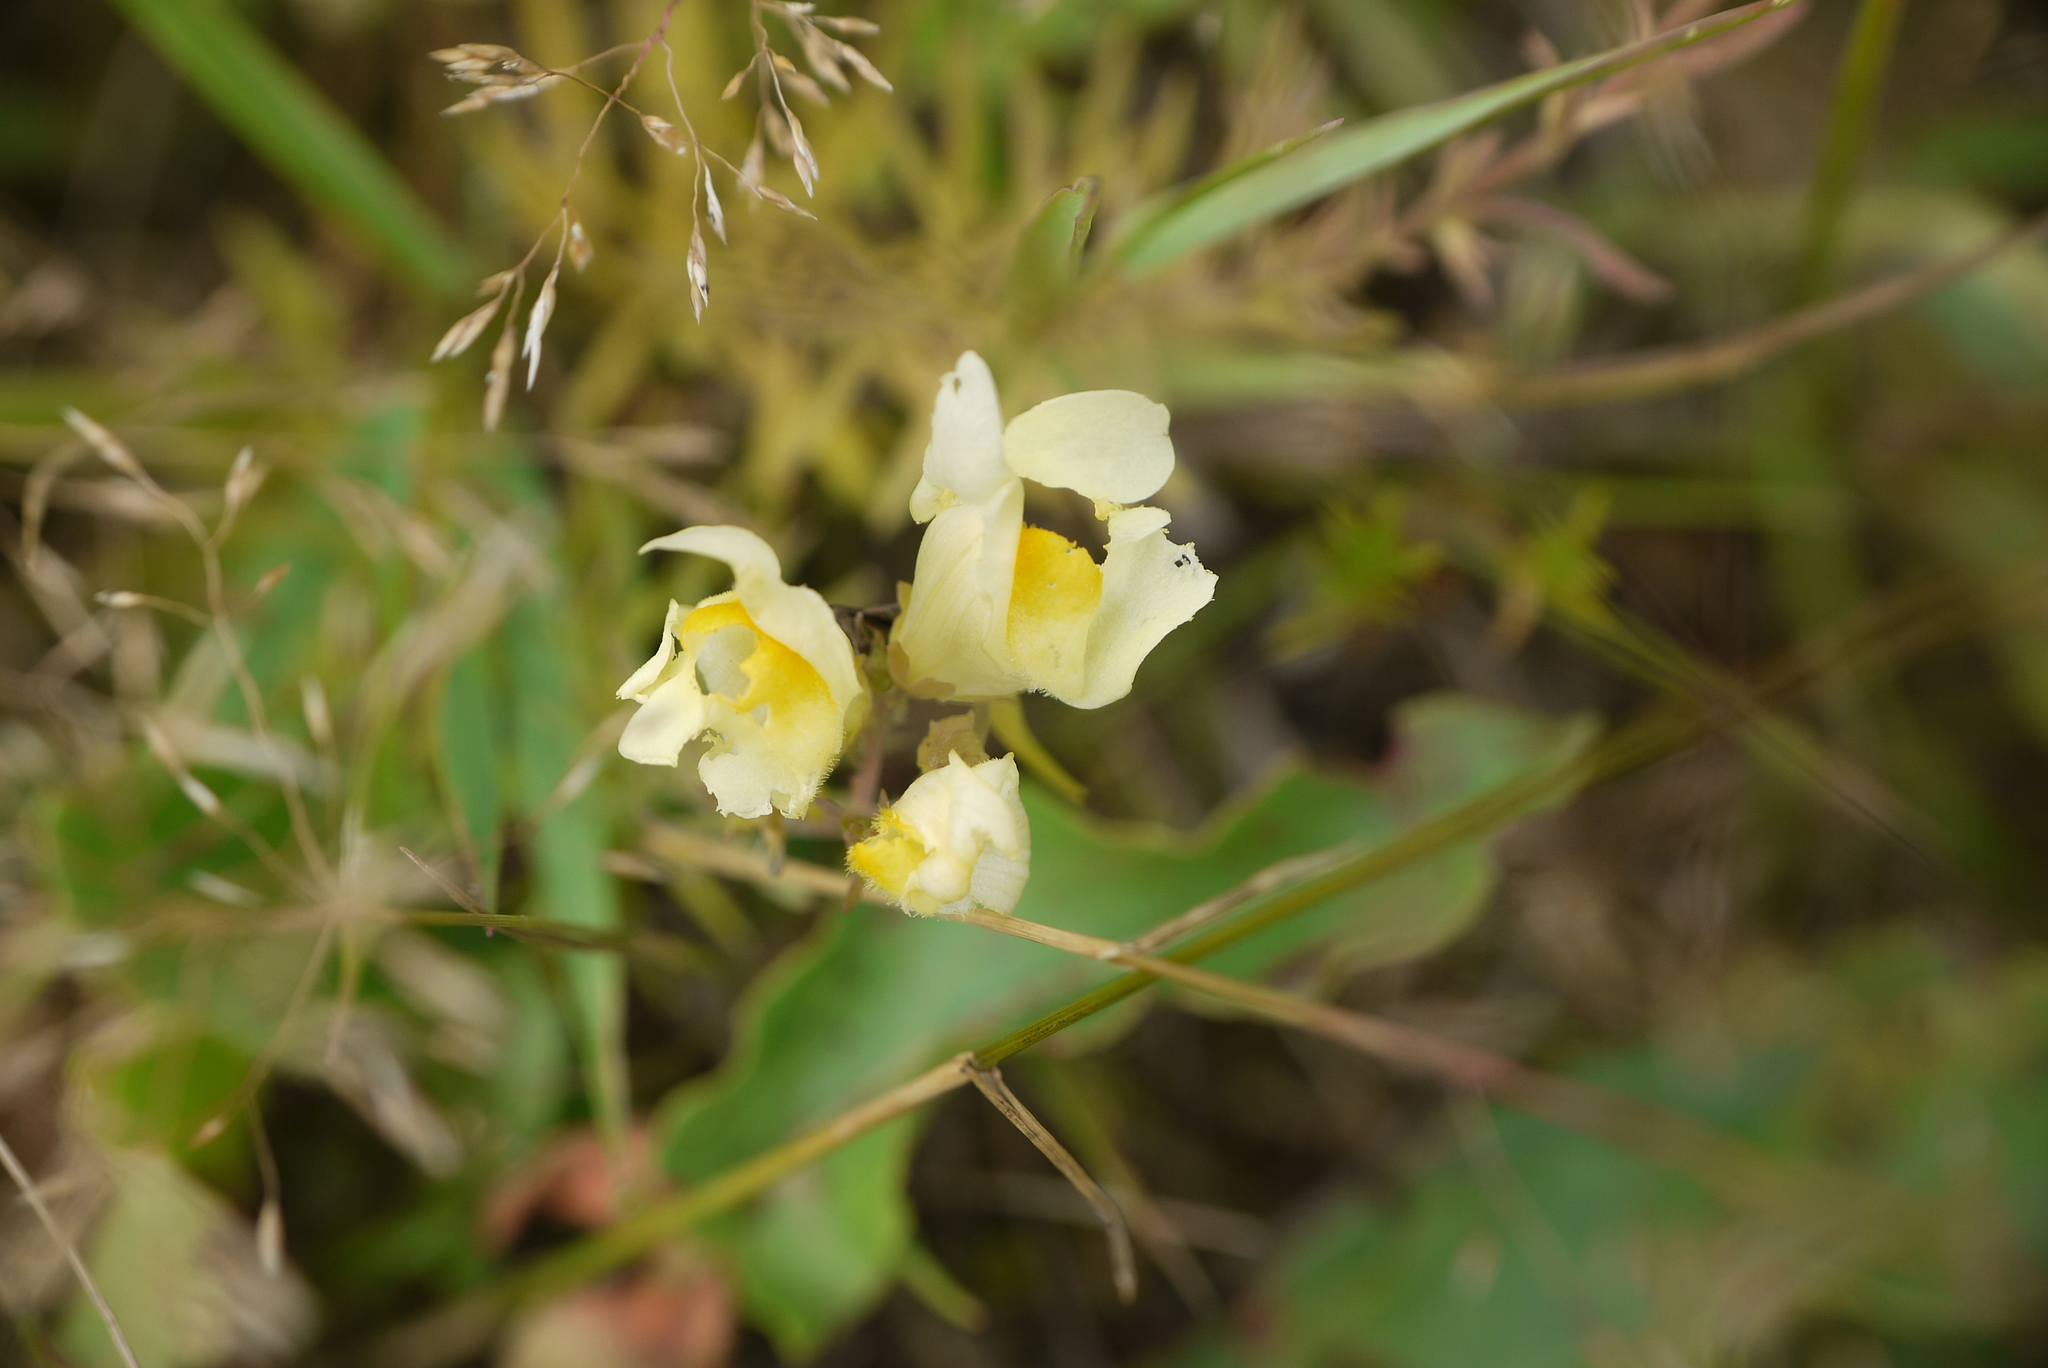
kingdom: Plantae
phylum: Tracheophyta
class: Magnoliopsida
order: Lamiales
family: Plantaginaceae
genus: Linaria
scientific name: Linaria vulgaris
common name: Butter and eggs
